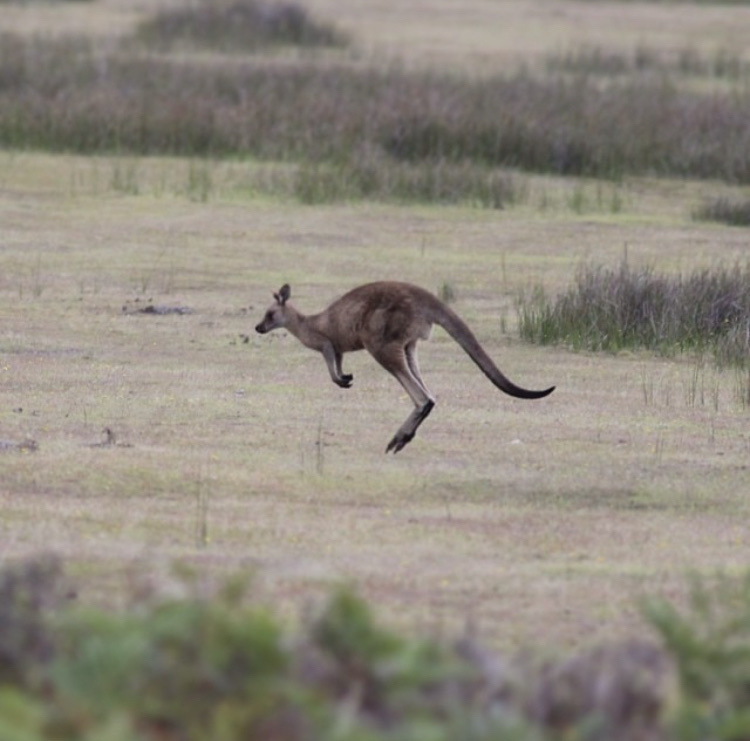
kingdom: Animalia
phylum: Chordata
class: Mammalia
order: Diprotodontia
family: Macropodidae
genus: Macropus
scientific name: Macropus giganteus
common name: Eastern grey kangaroo
